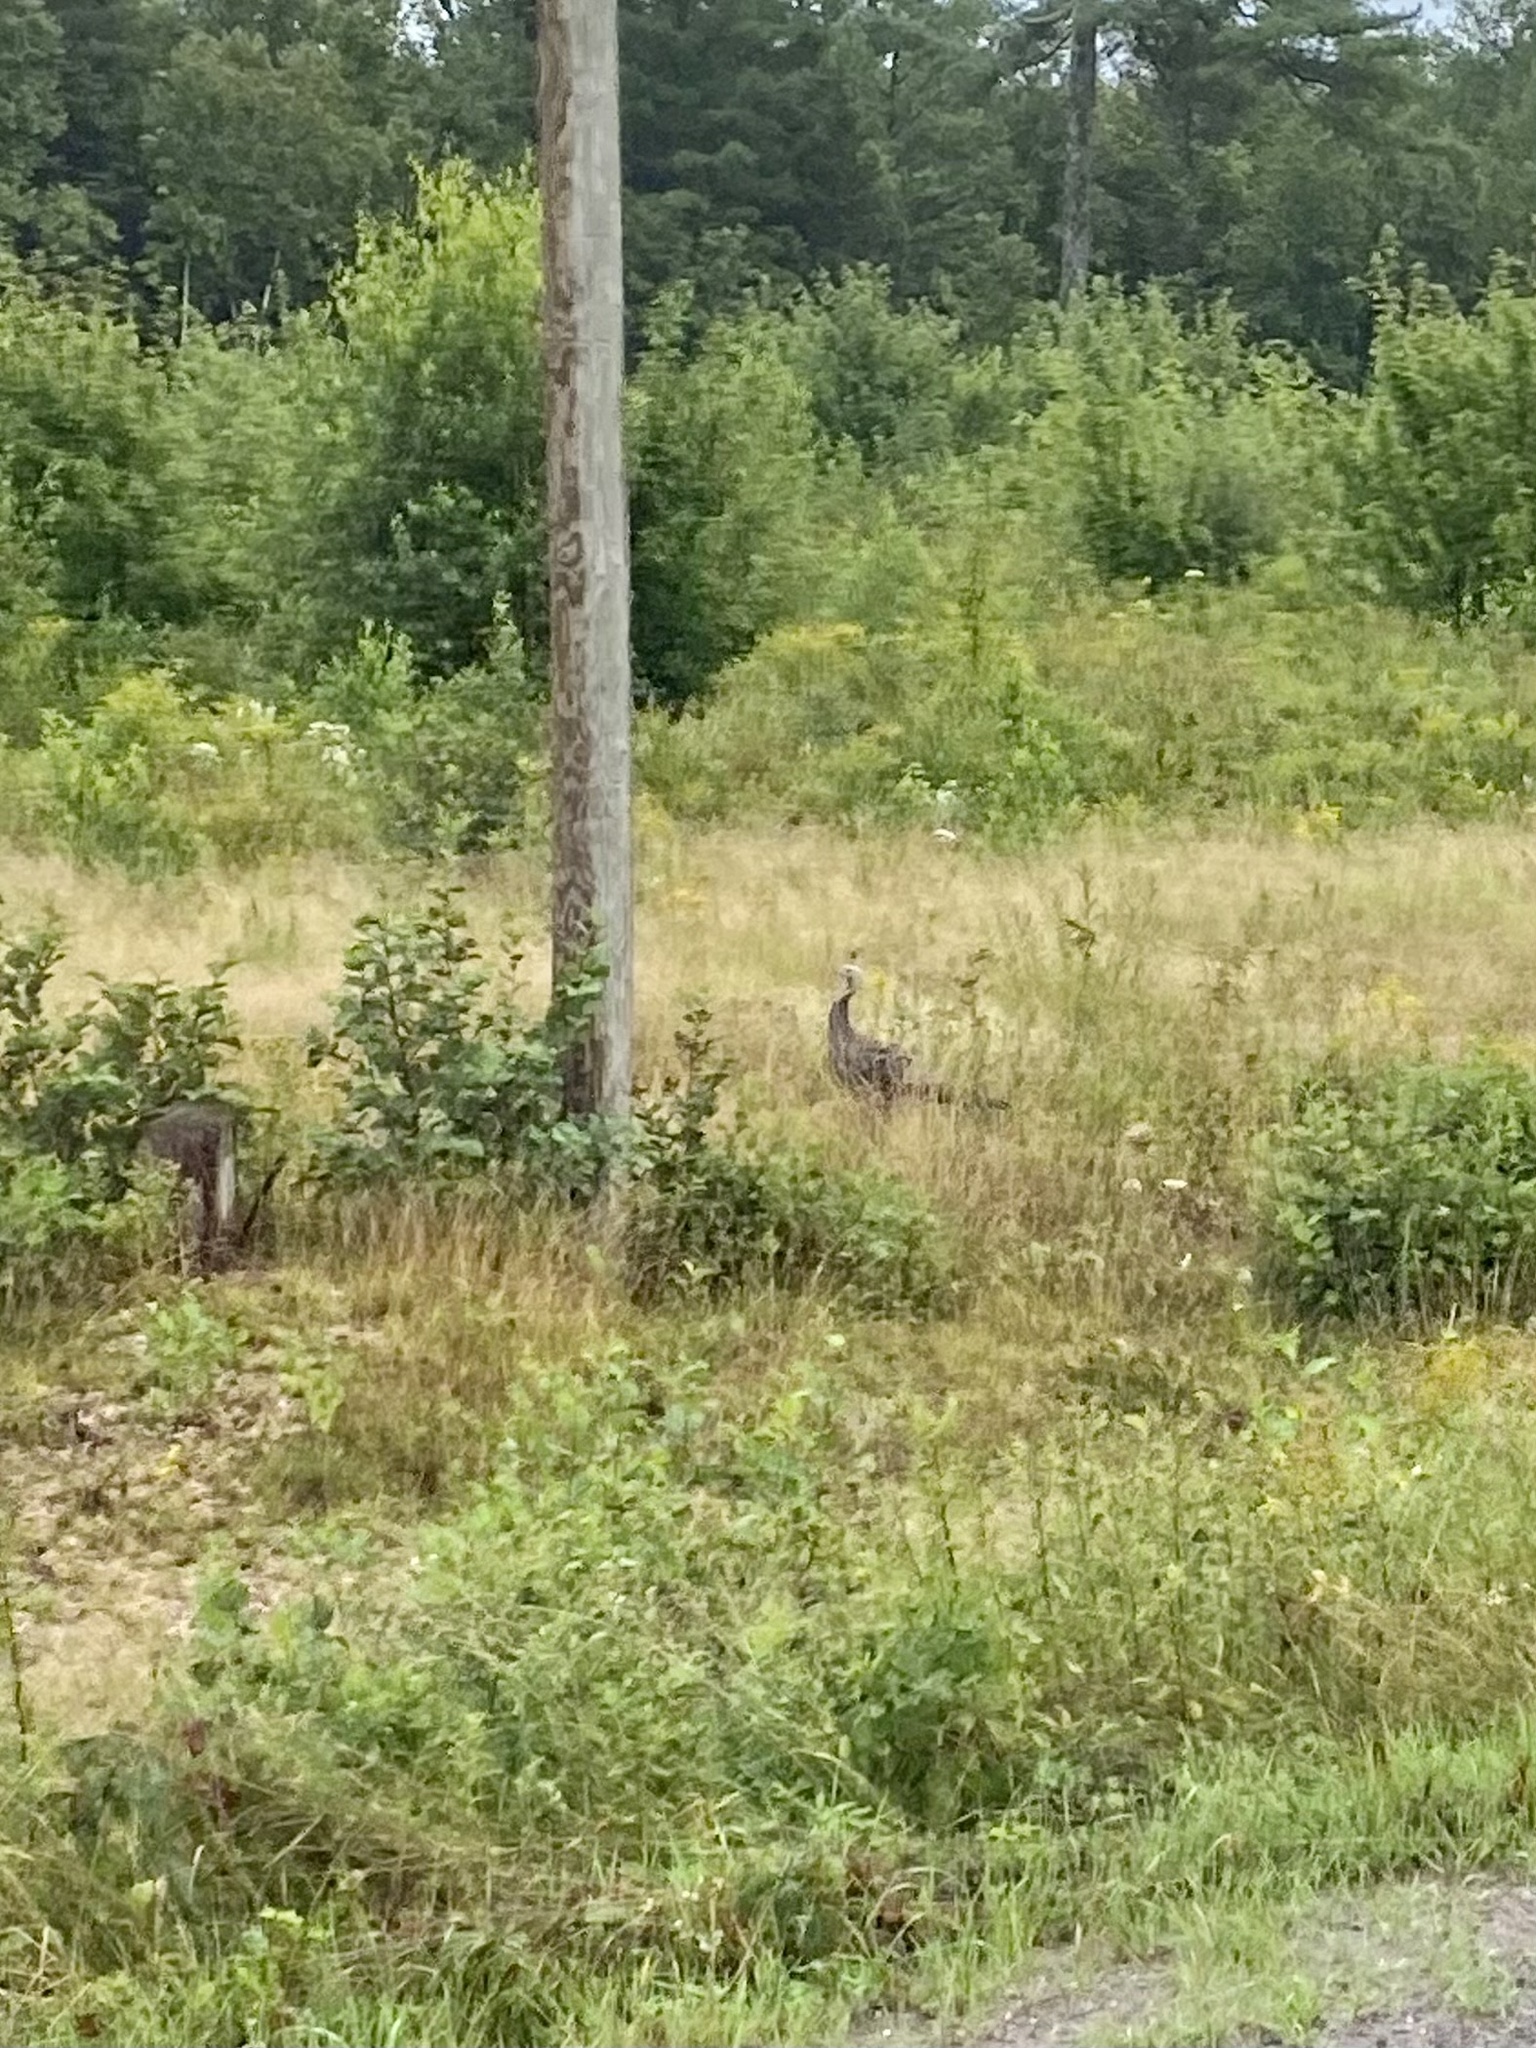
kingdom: Animalia
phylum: Chordata
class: Aves
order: Galliformes
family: Phasianidae
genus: Meleagris
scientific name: Meleagris gallopavo
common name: Wild turkey
